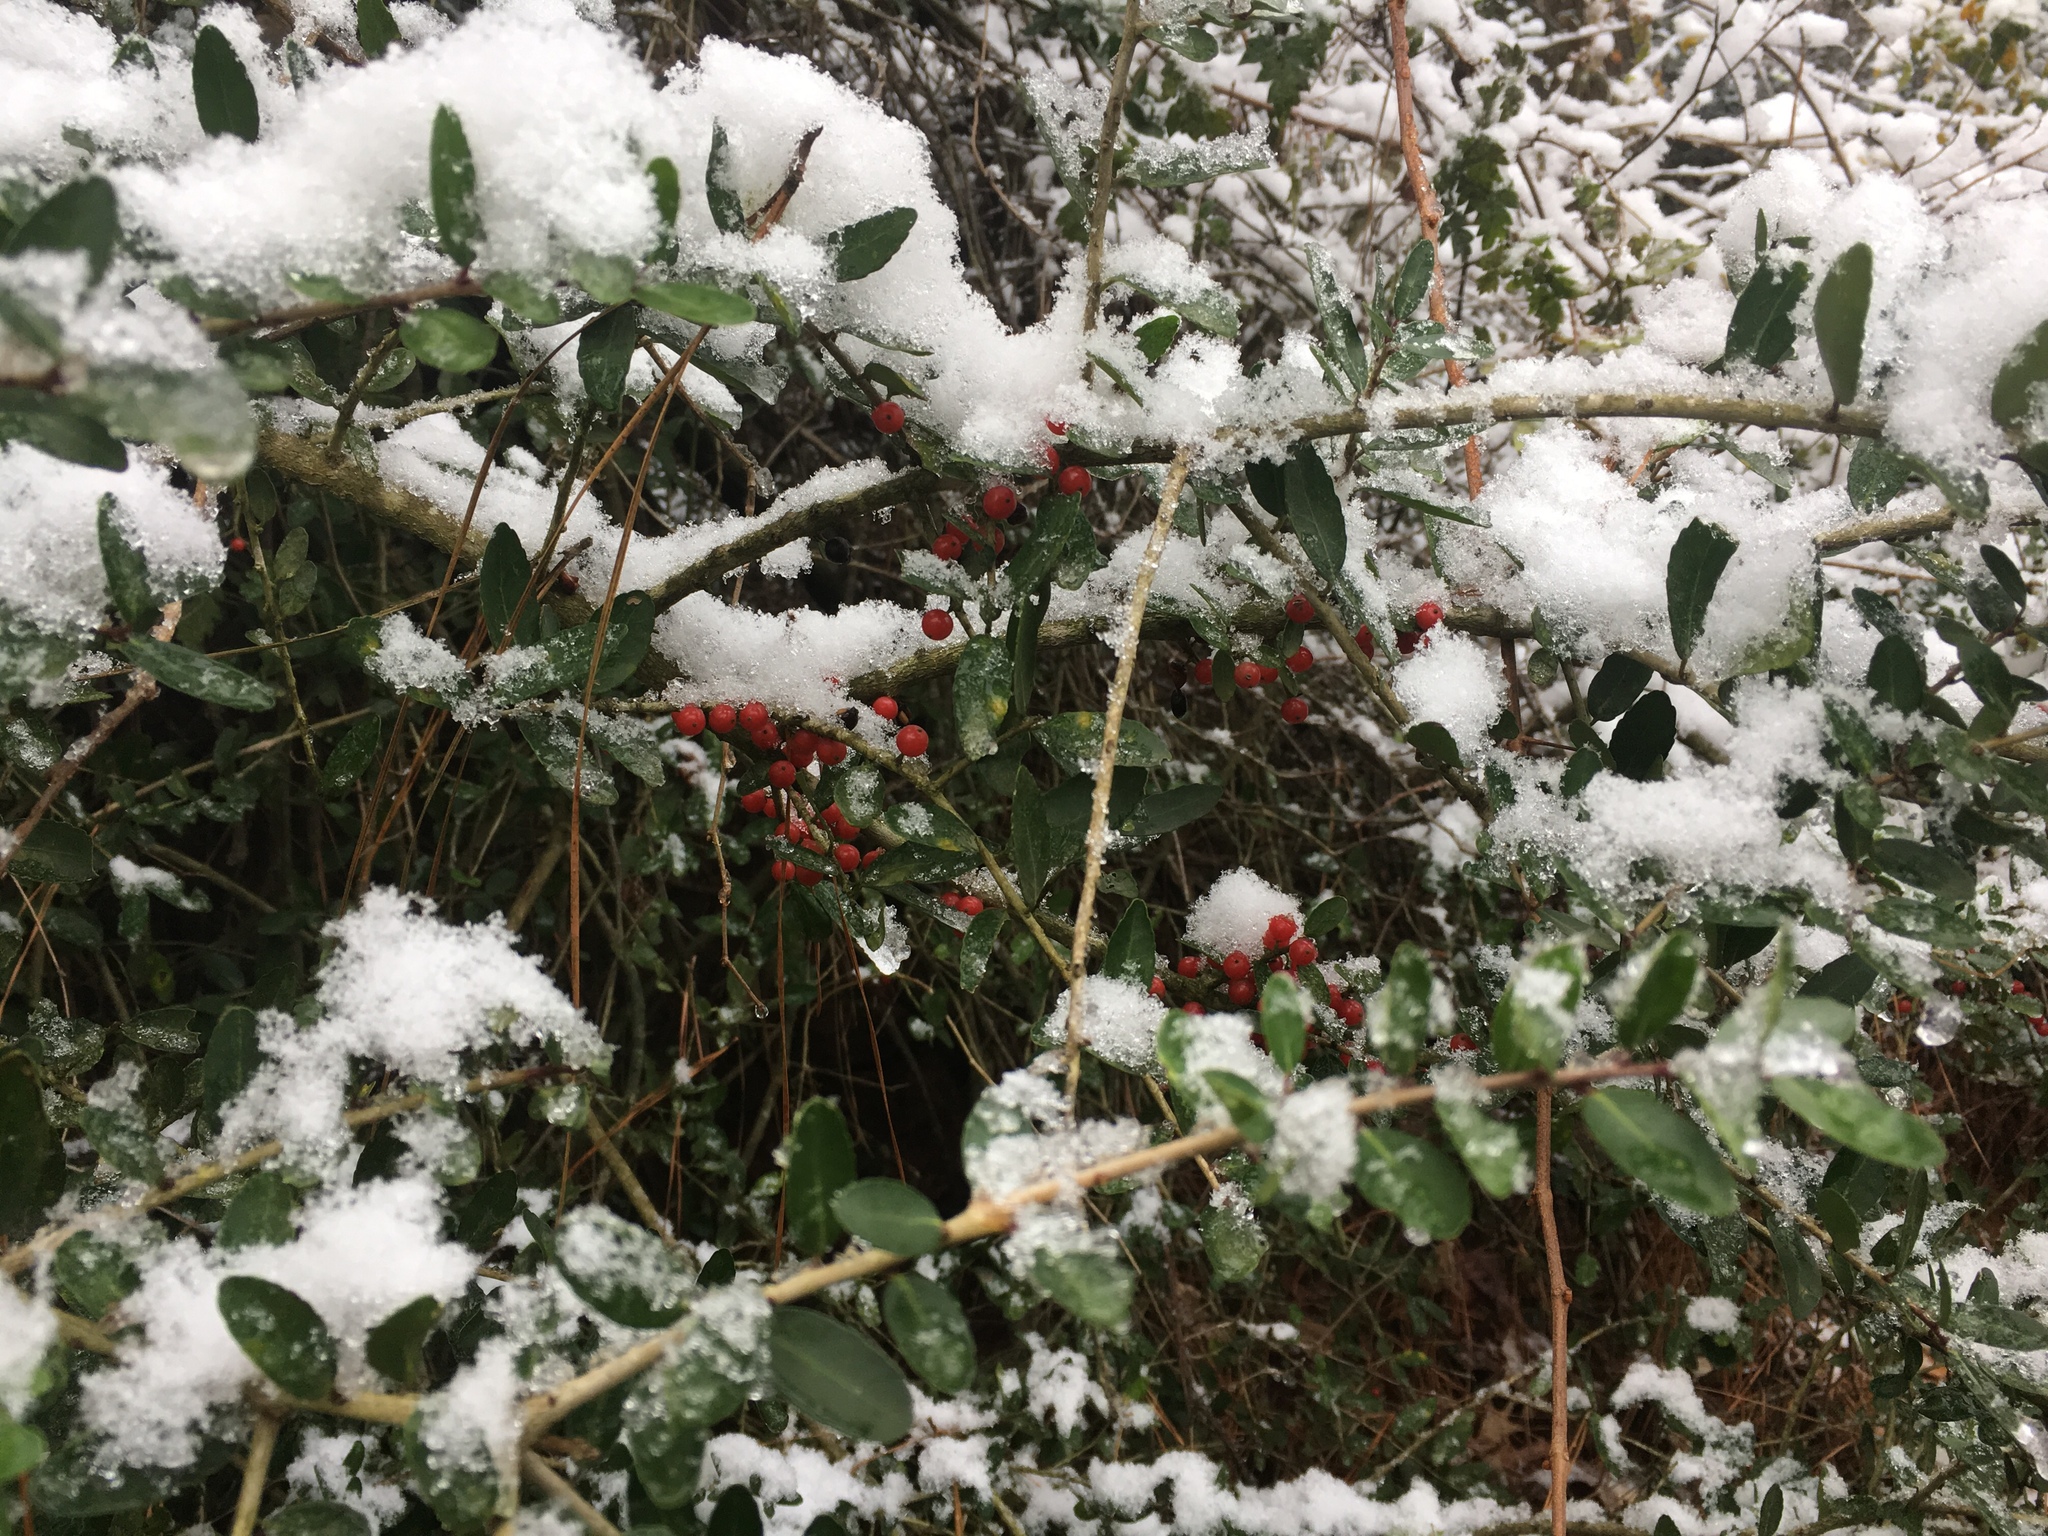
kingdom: Plantae
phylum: Tracheophyta
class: Magnoliopsida
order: Aquifoliales
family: Aquifoliaceae
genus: Ilex
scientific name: Ilex vomitoria
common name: Yaupon holly
